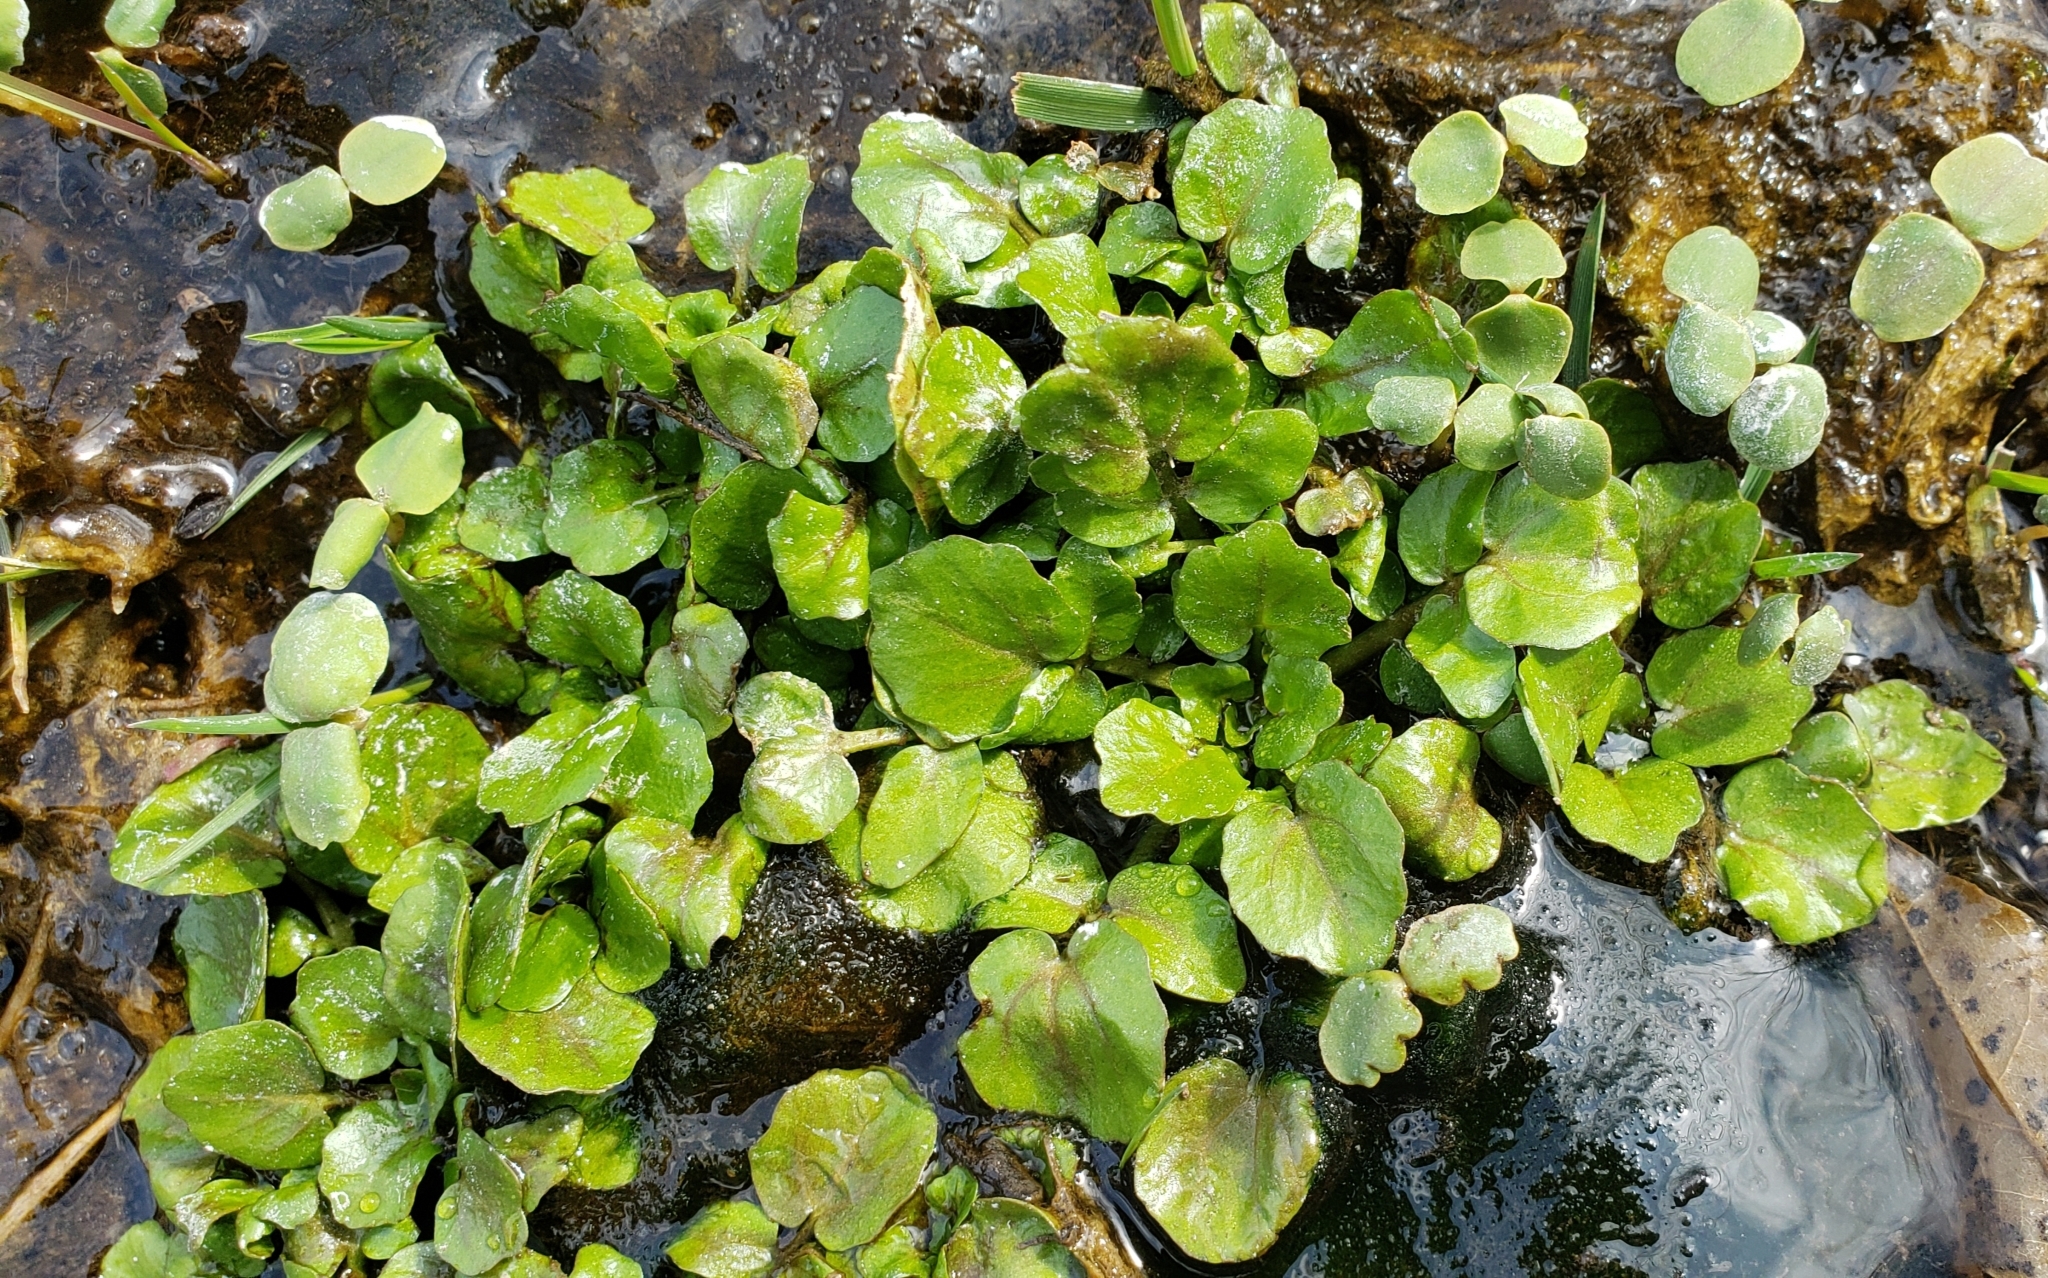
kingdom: Plantae
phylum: Tracheophyta
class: Magnoliopsida
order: Brassicales
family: Brassicaceae
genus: Nasturtium
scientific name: Nasturtium officinale
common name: Watercress
